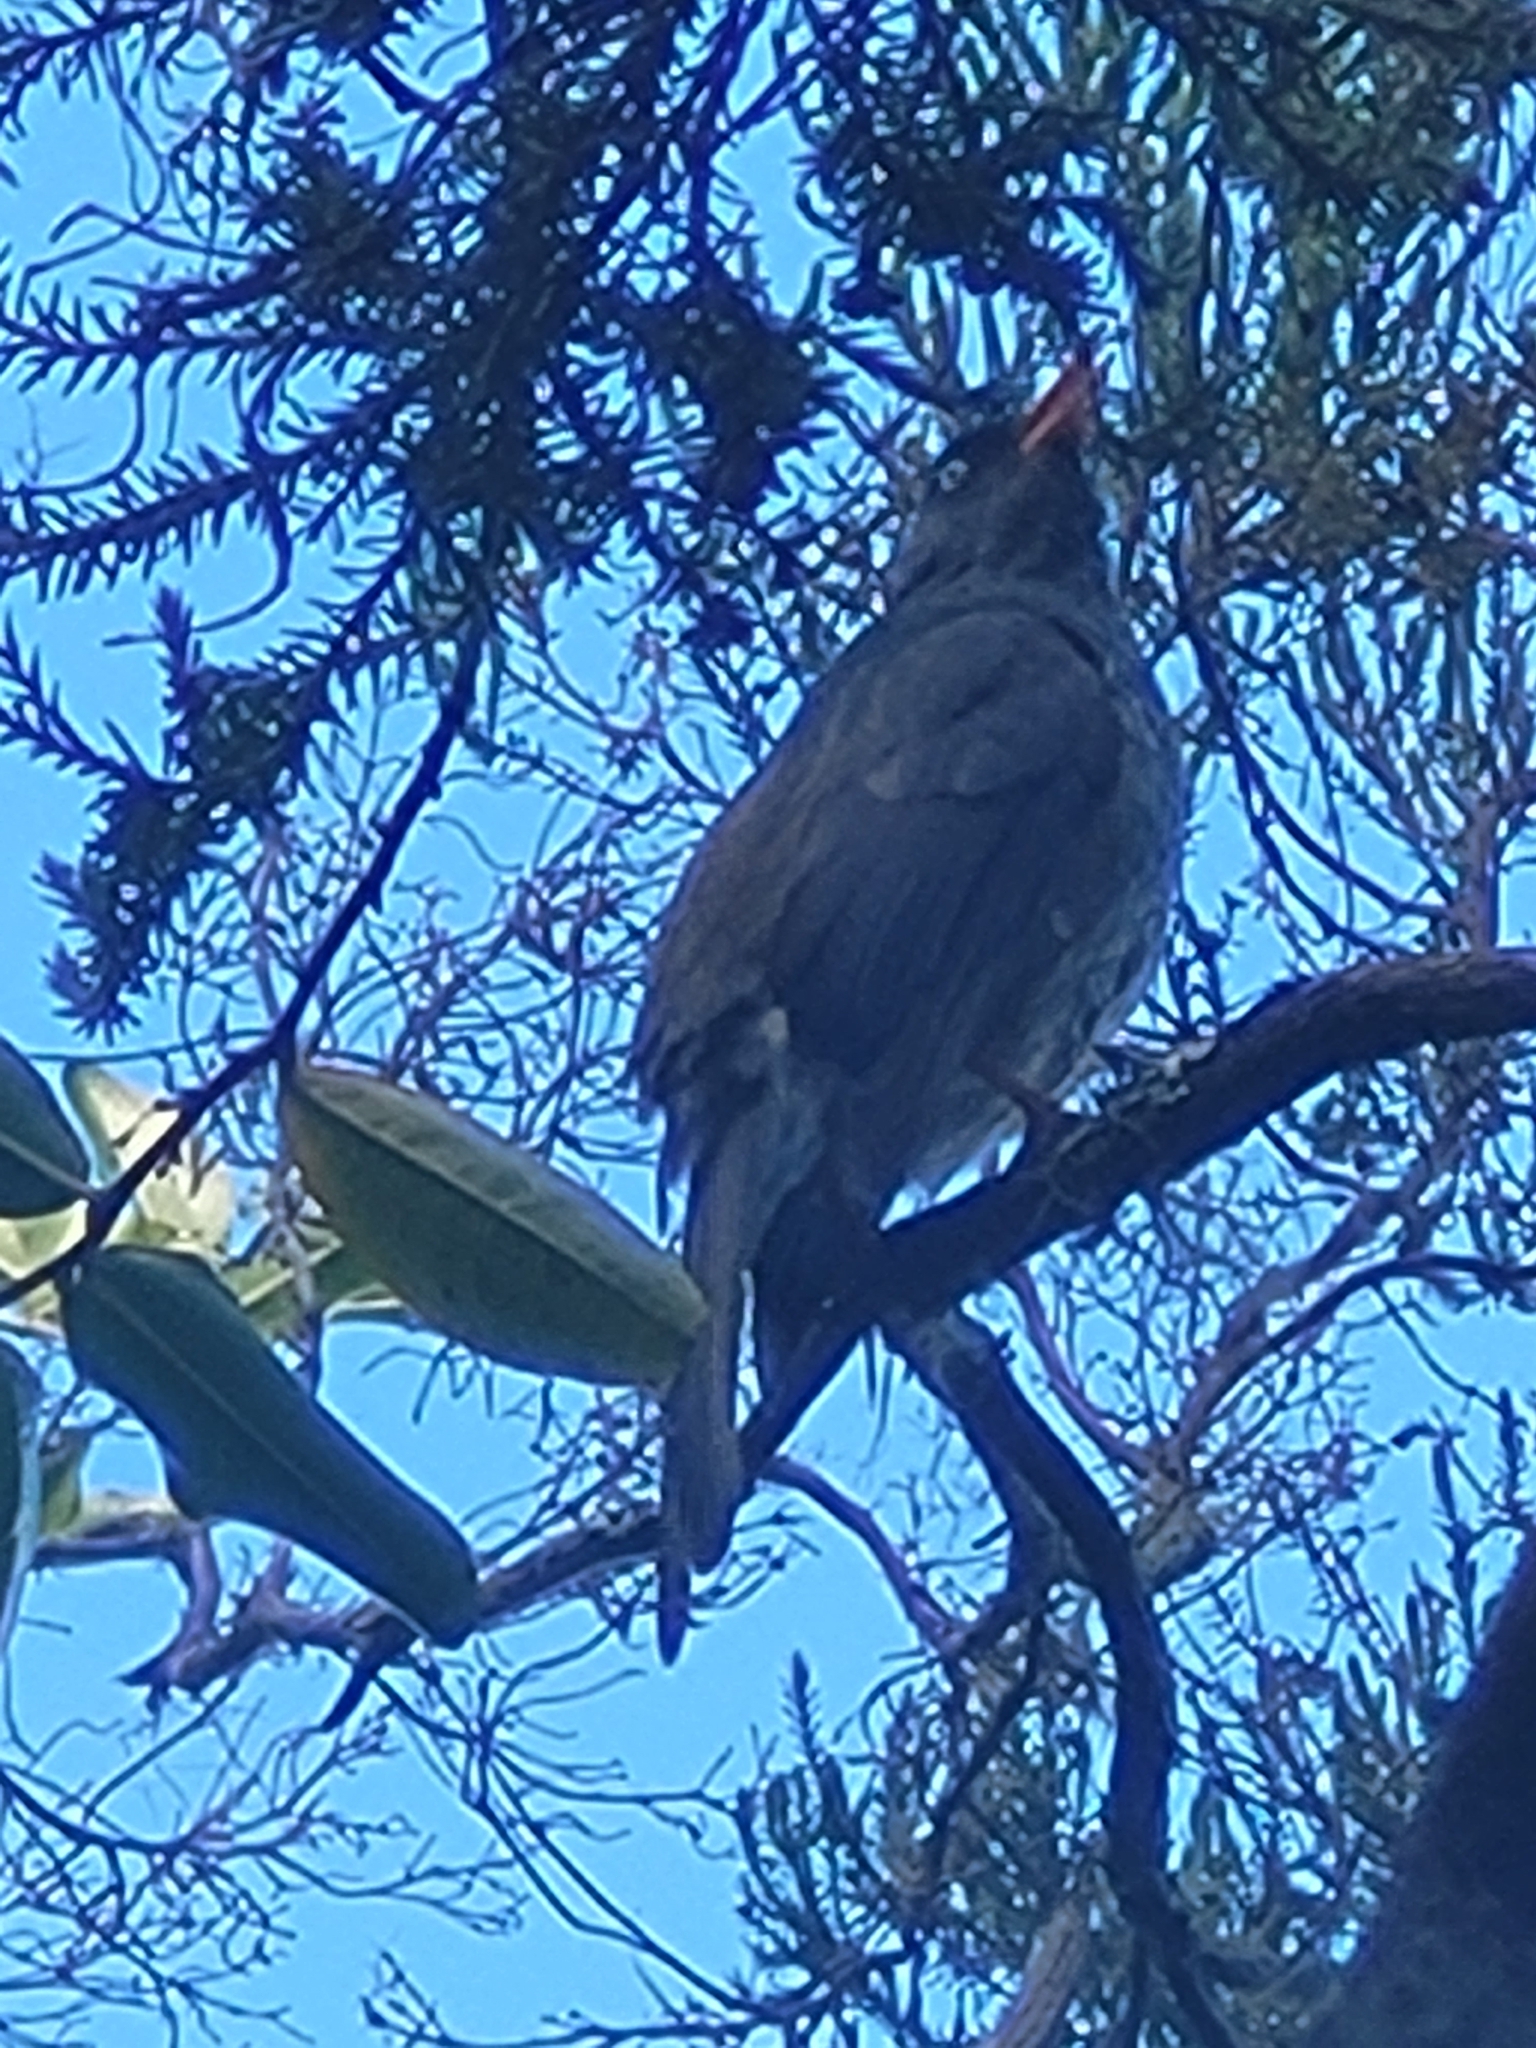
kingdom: Animalia
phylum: Chordata
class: Aves
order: Passeriformes
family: Pycnonotidae
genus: Hypsipetes
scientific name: Hypsipetes borbonicus
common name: Reunion bulbul
